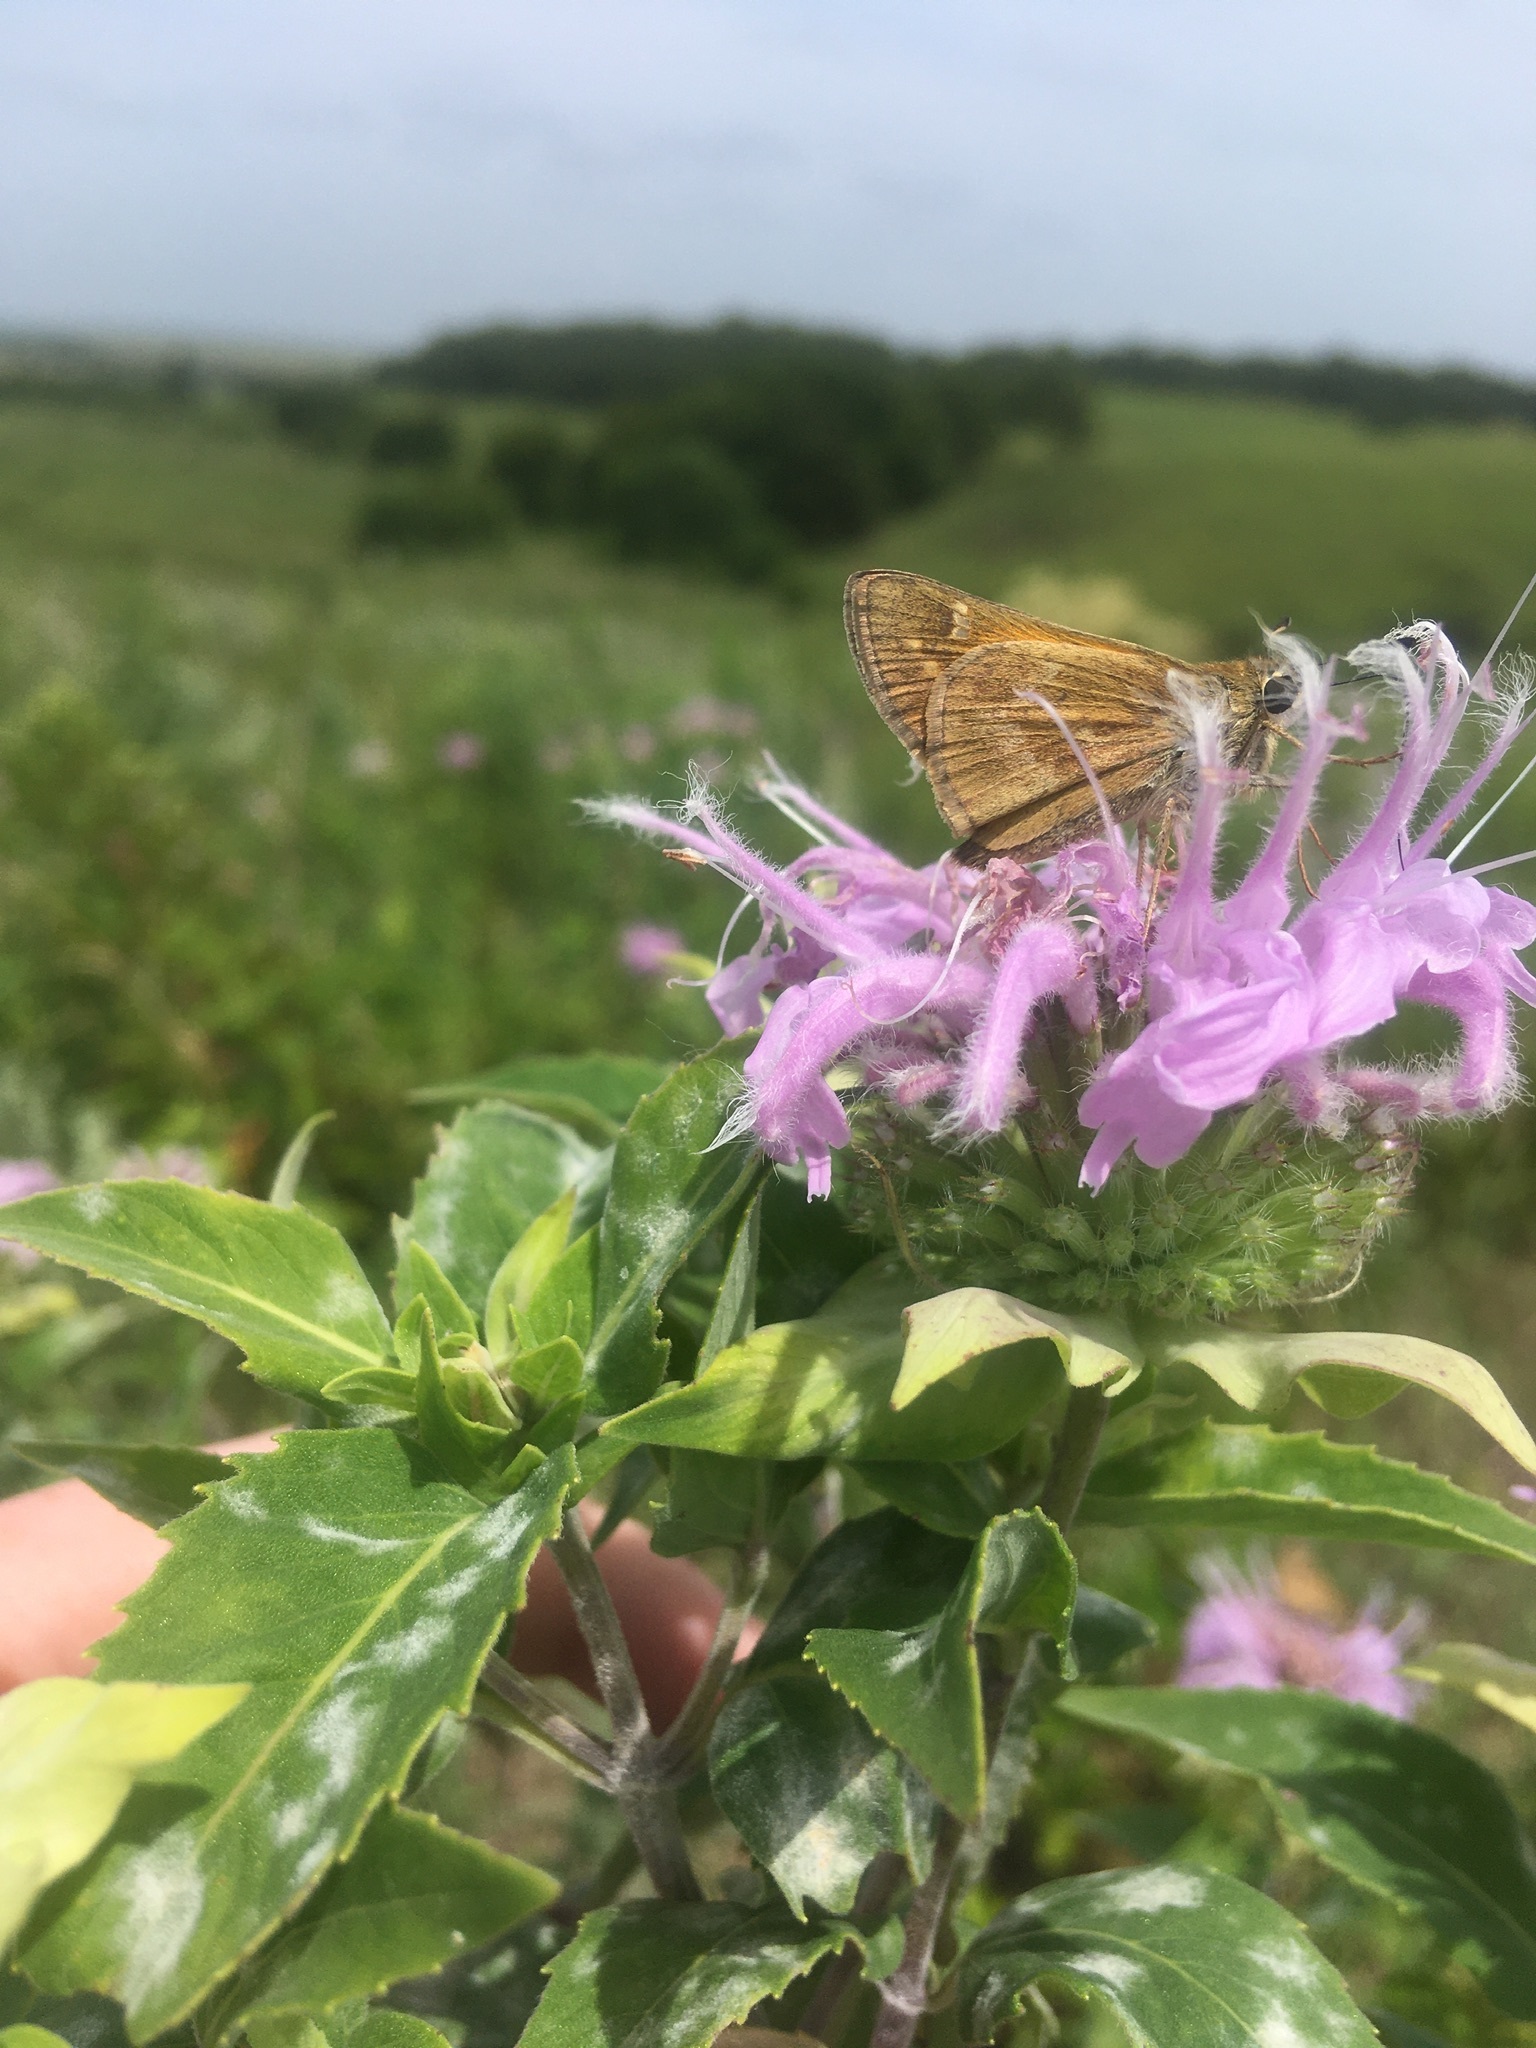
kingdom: Animalia
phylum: Arthropoda
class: Insecta
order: Lepidoptera
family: Hesperiidae
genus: Atalopedes
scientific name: Atalopedes
